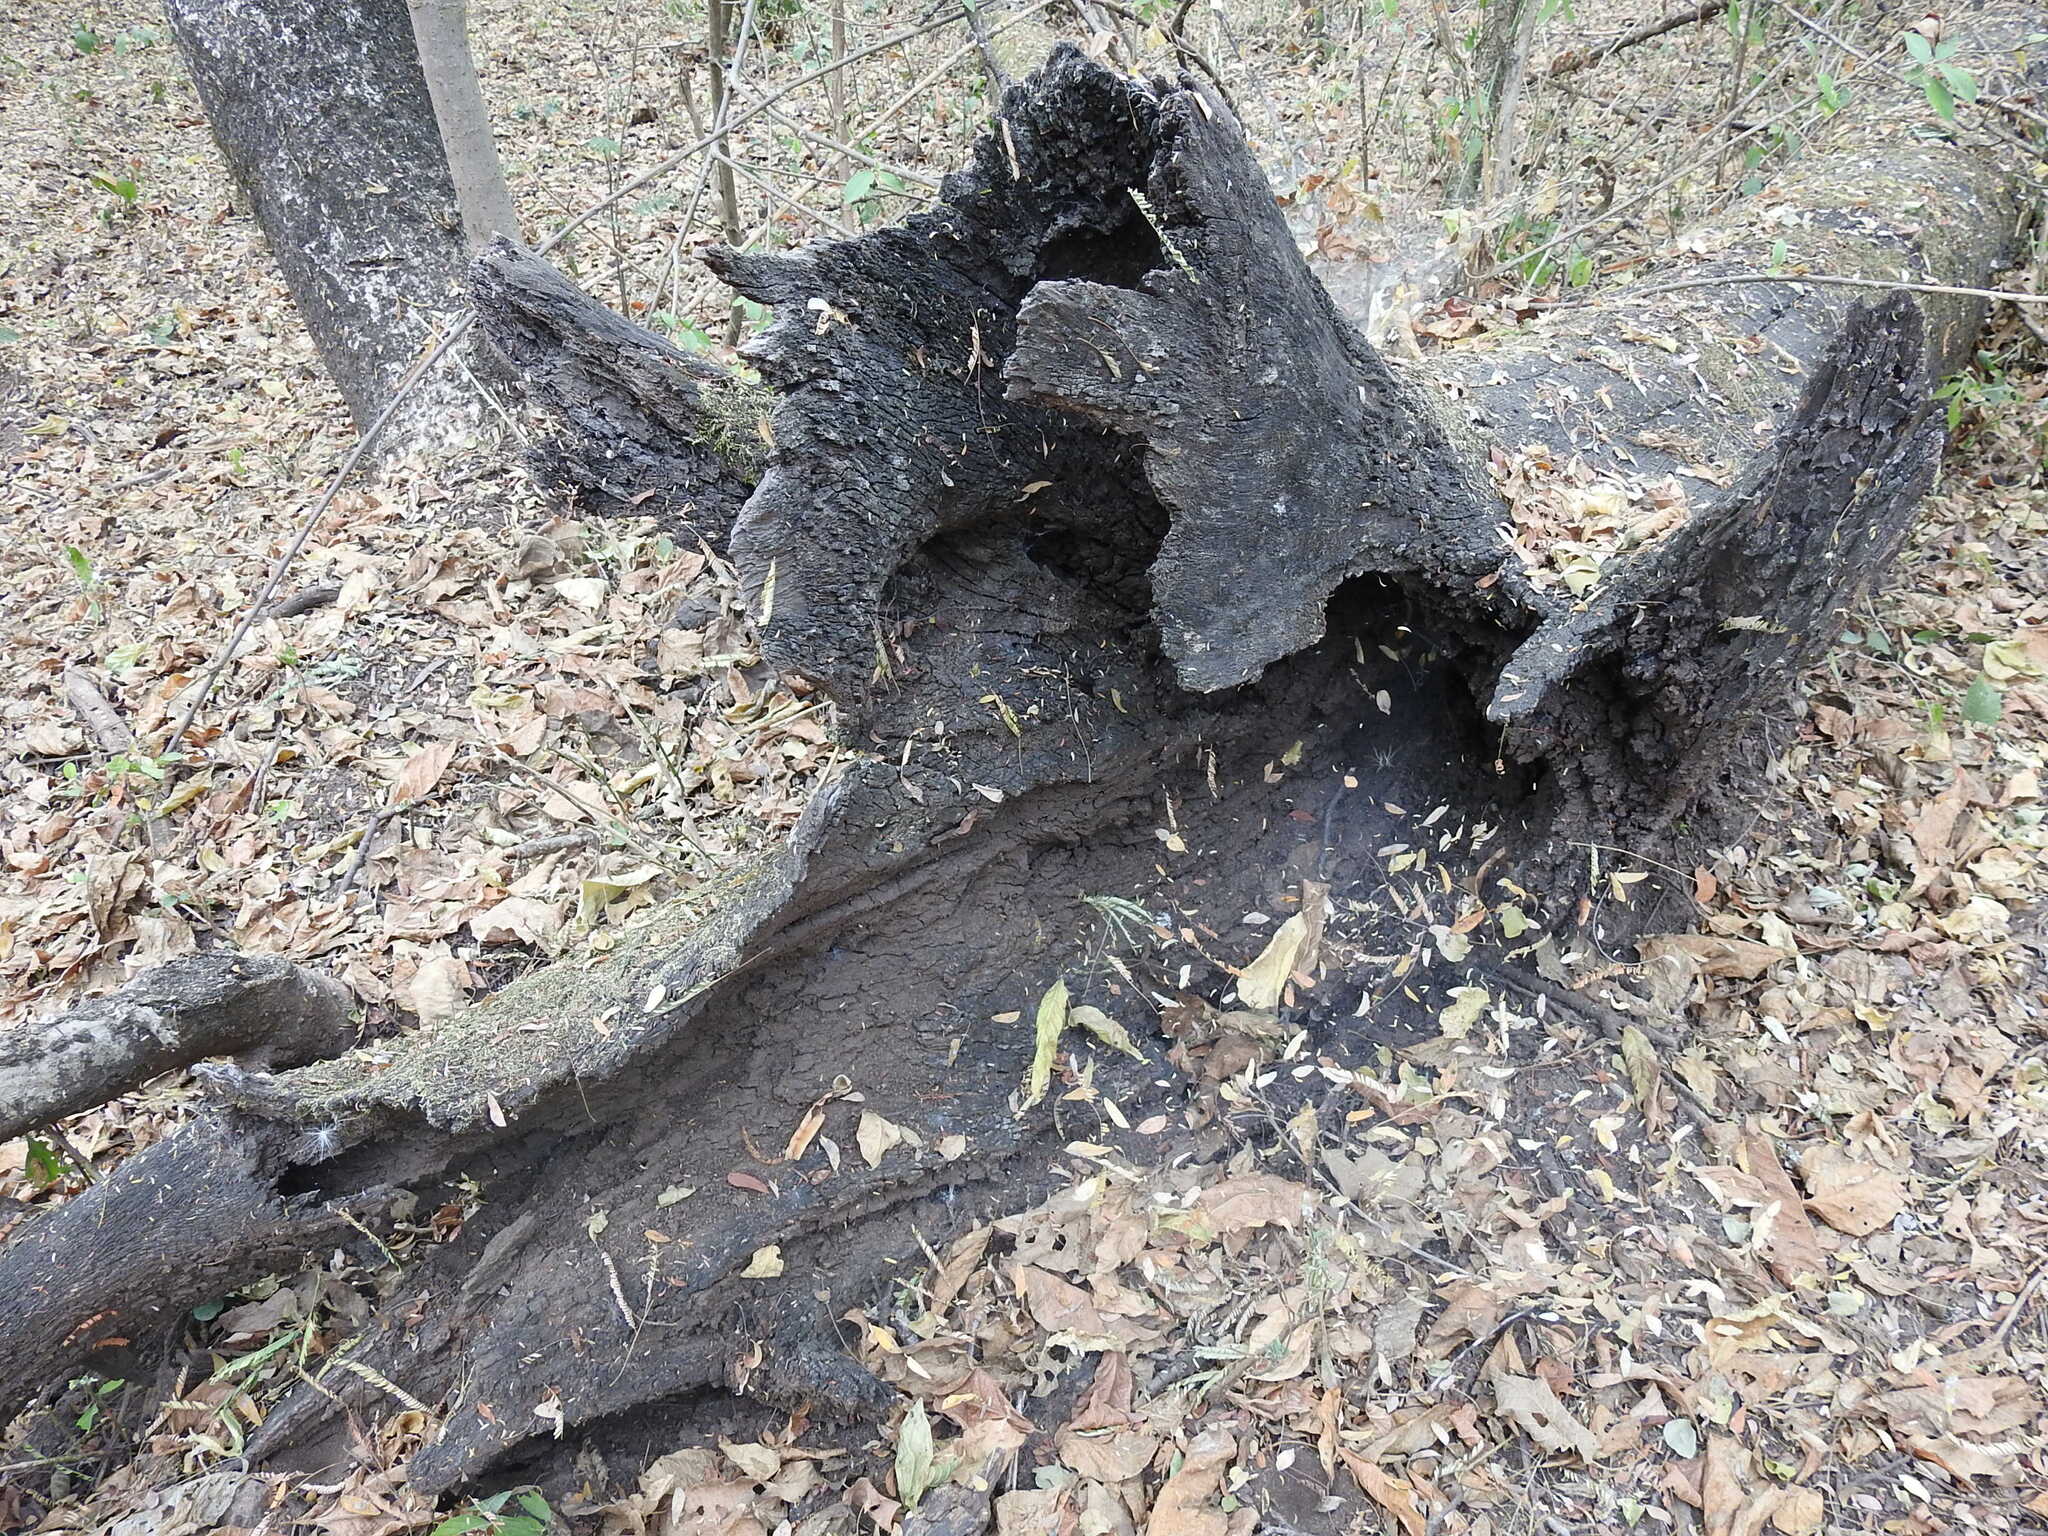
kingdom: Animalia
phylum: Arthropoda
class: Arachnida
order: Araneae
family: Lycosidae
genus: Aglaoctenus
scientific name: Aglaoctenus lagotis
